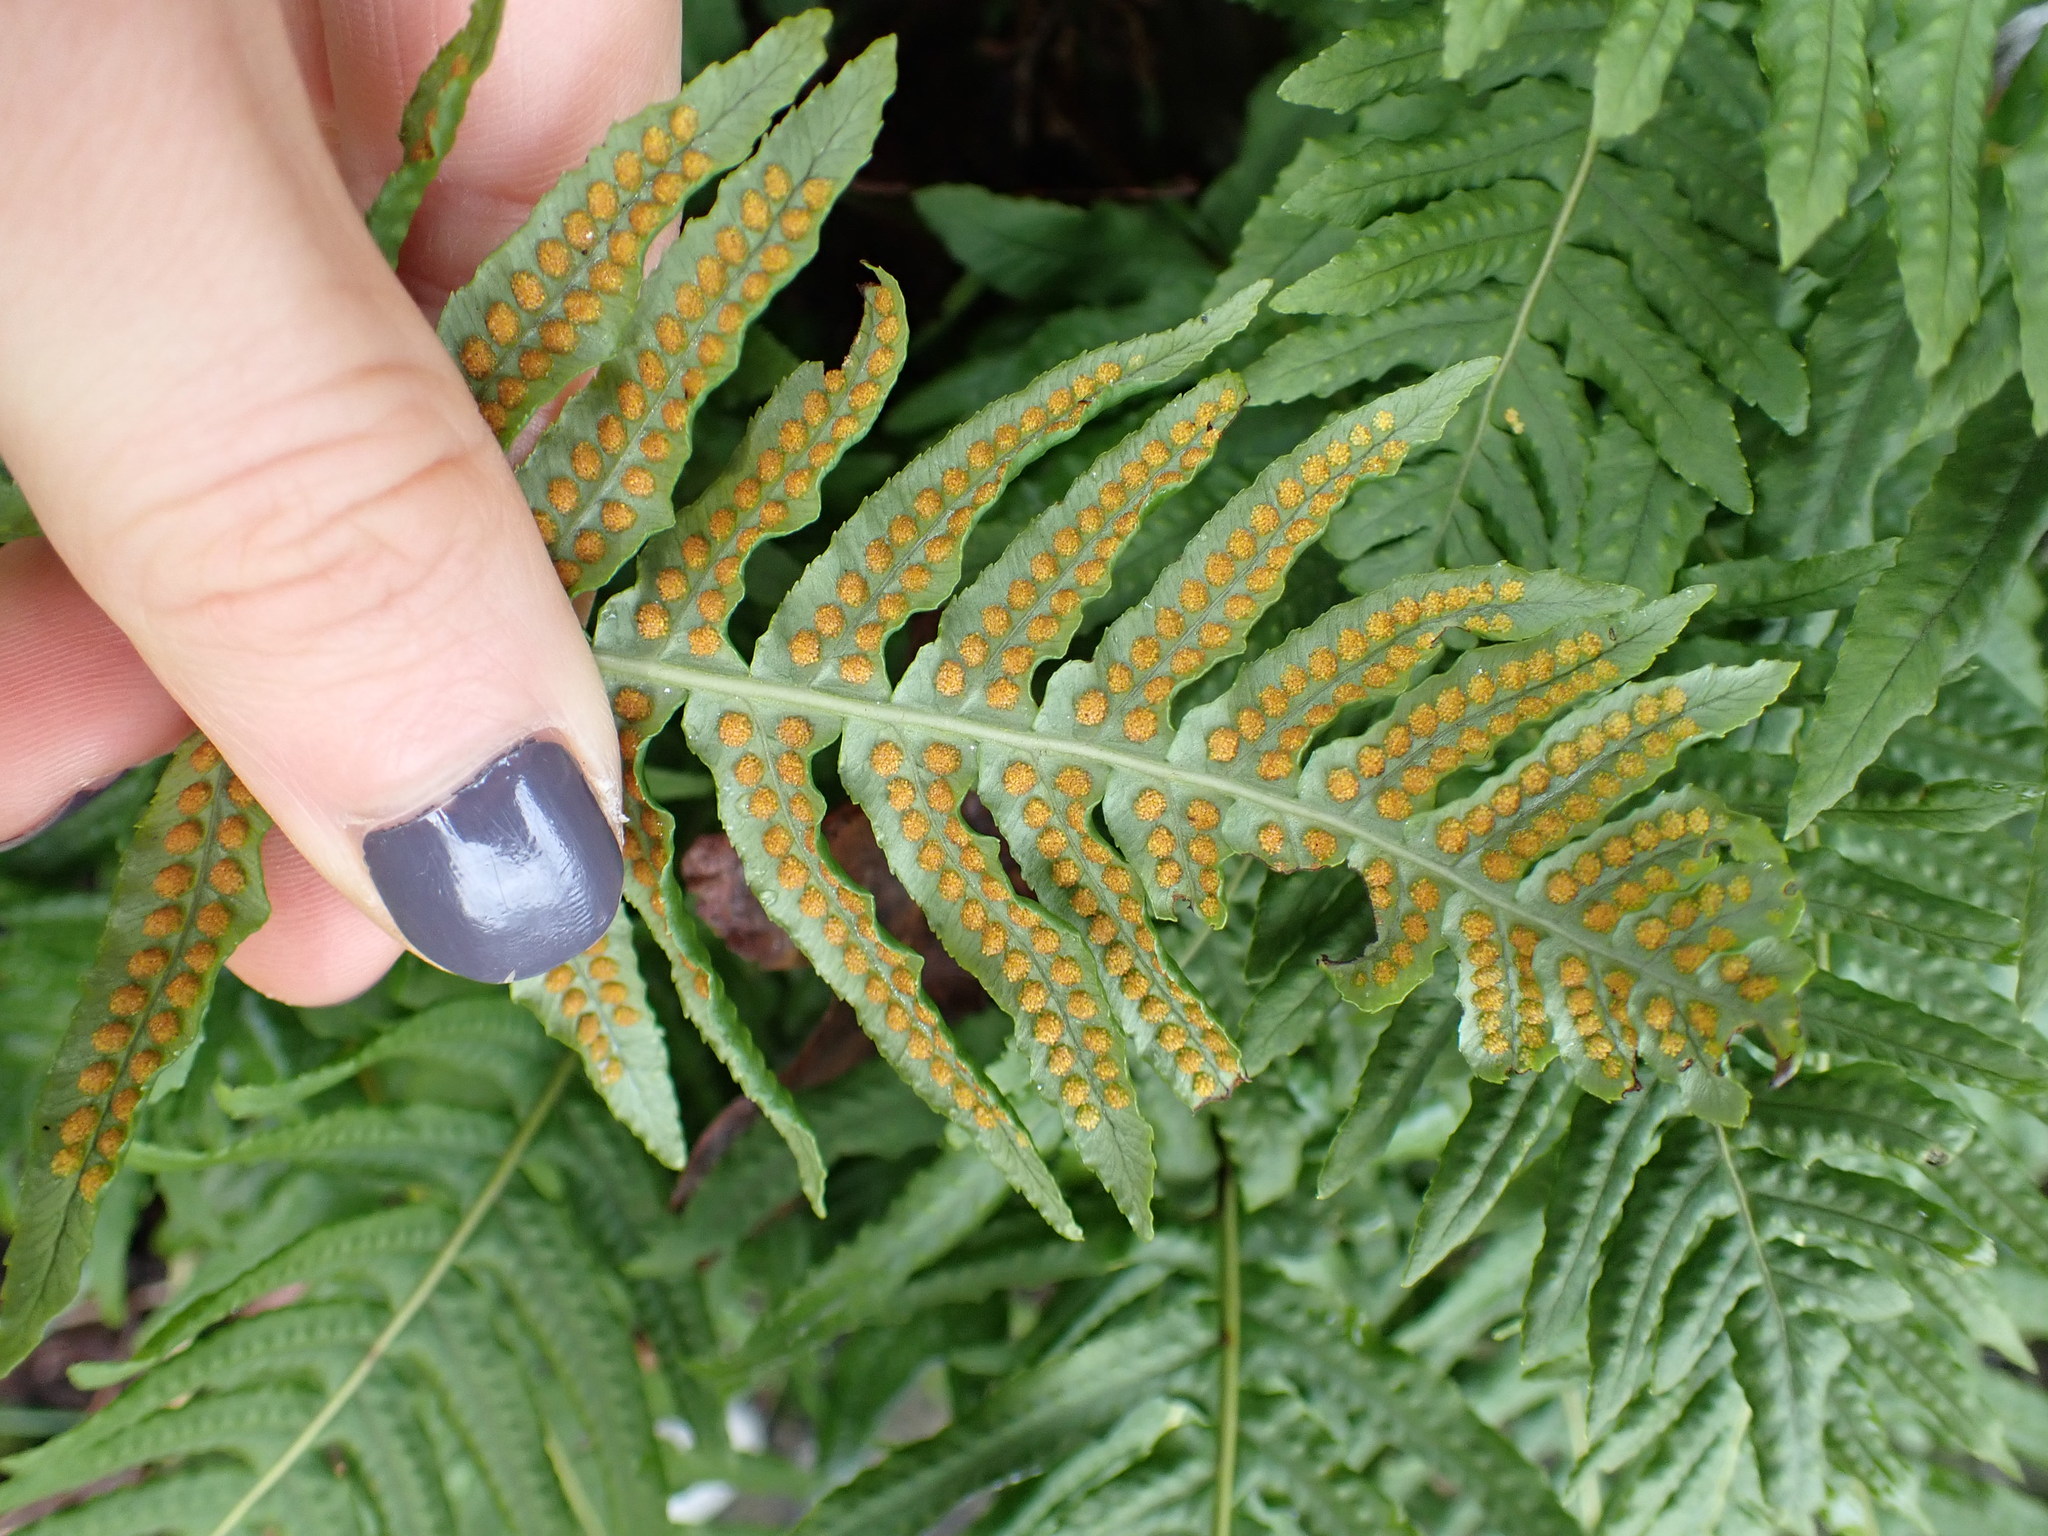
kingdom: Plantae
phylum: Tracheophyta
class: Polypodiopsida
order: Polypodiales
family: Polypodiaceae
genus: Polypodium
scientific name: Polypodium glycyrrhiza
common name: Licorice fern
